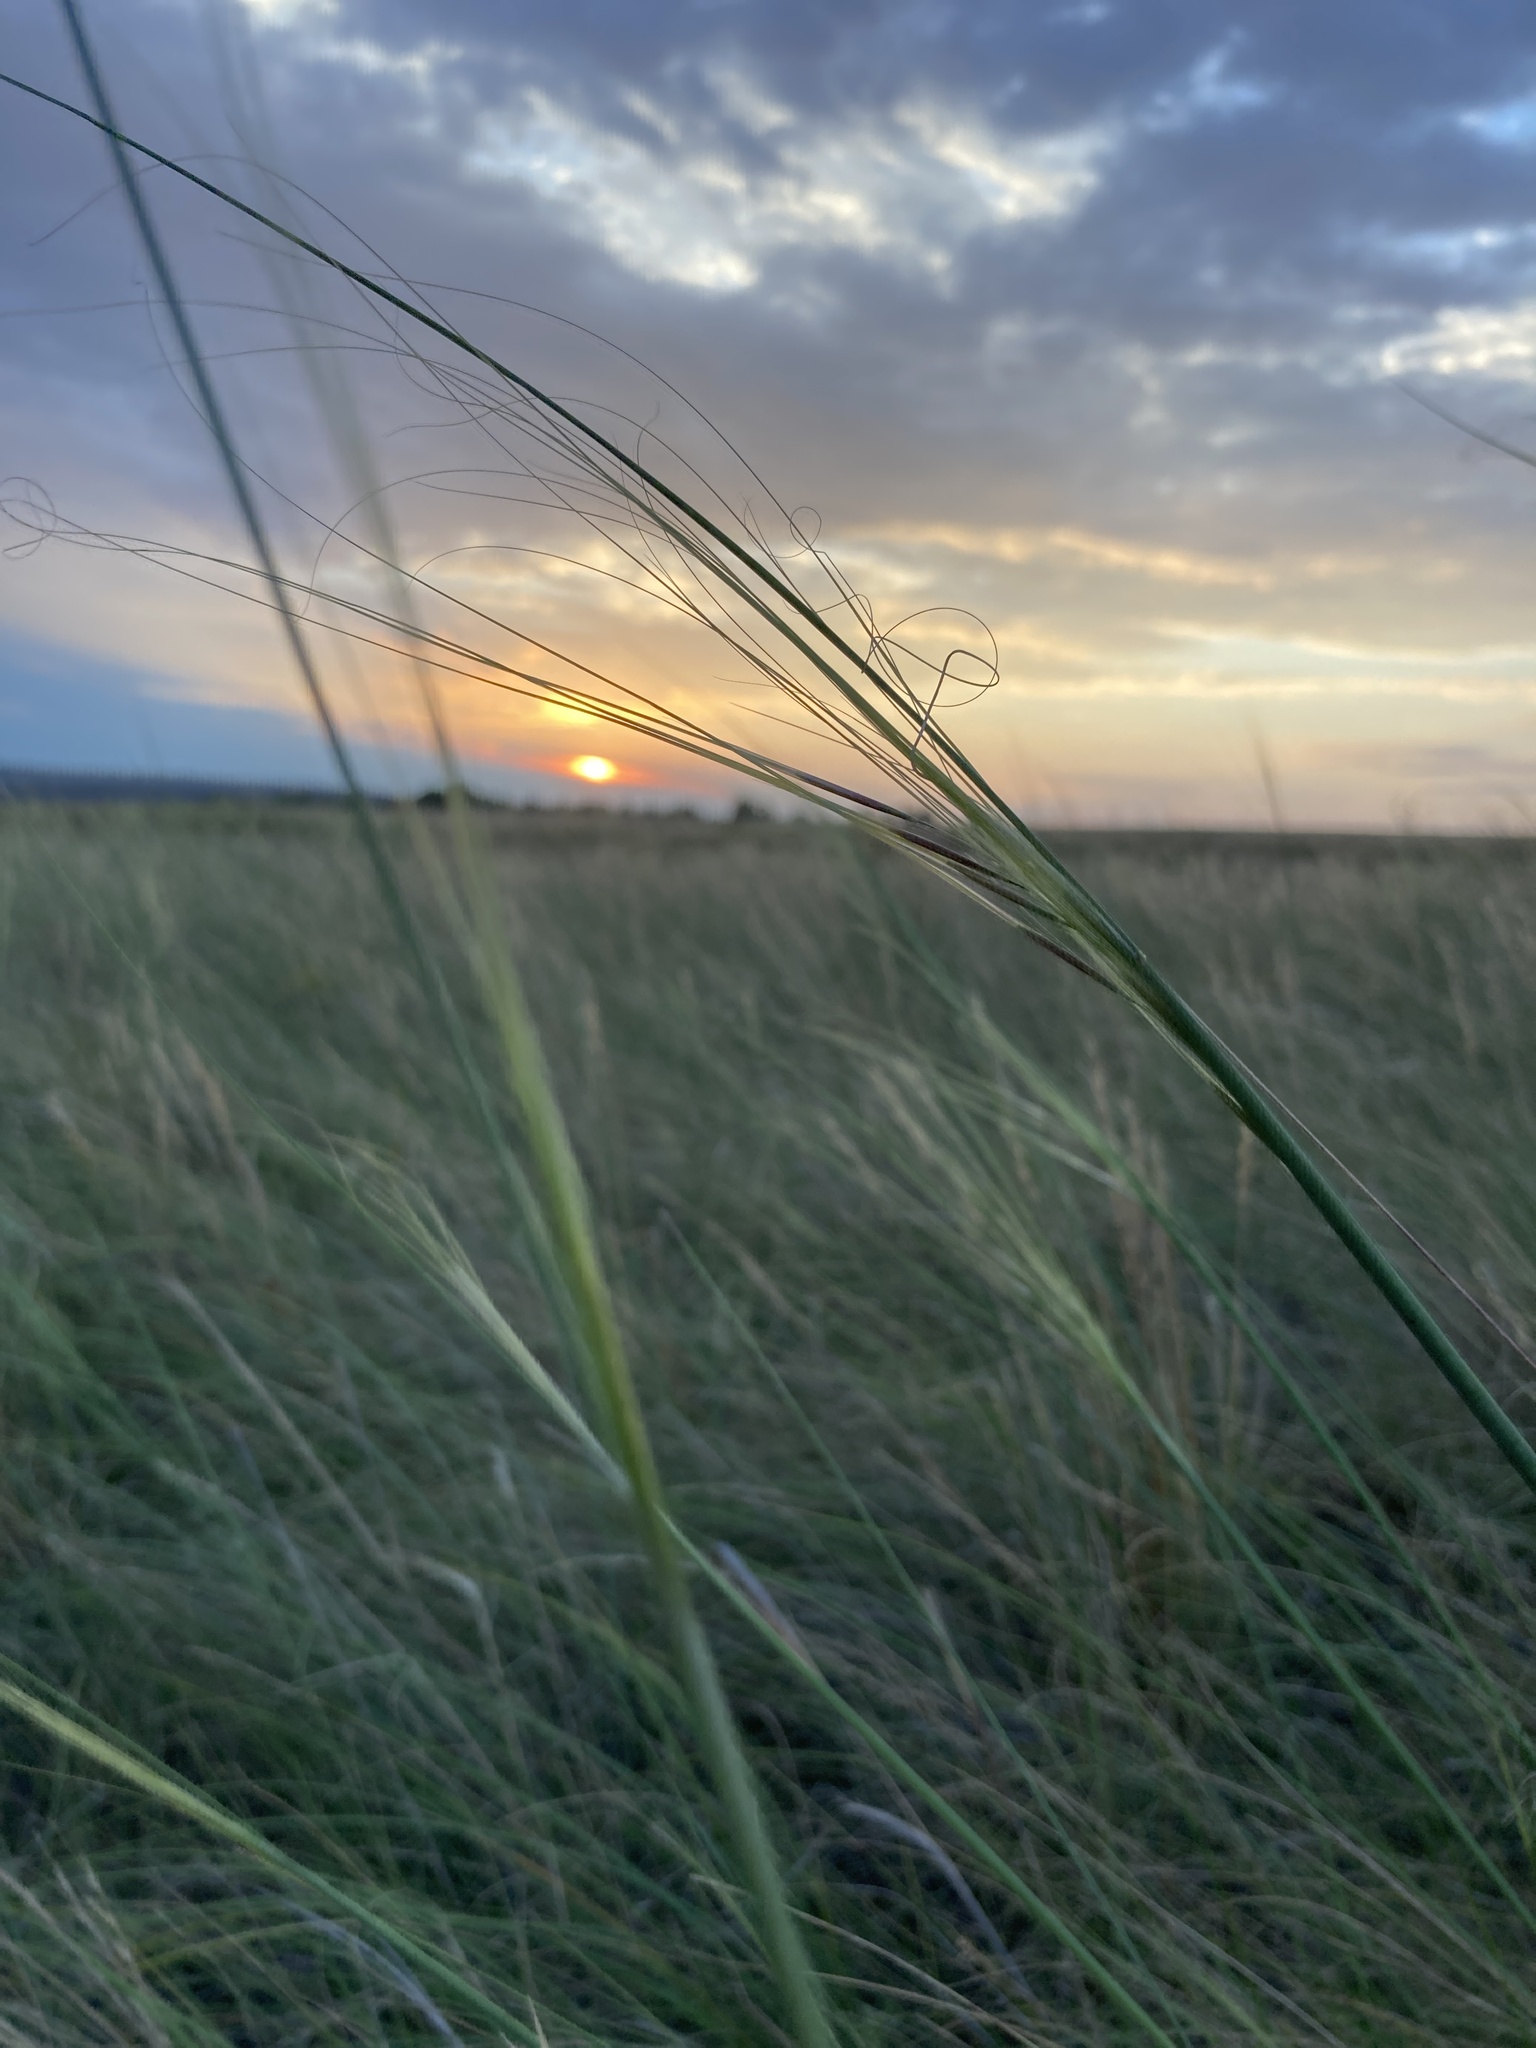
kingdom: Plantae
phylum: Tracheophyta
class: Liliopsida
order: Poales
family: Poaceae
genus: Stipa
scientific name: Stipa capillata
